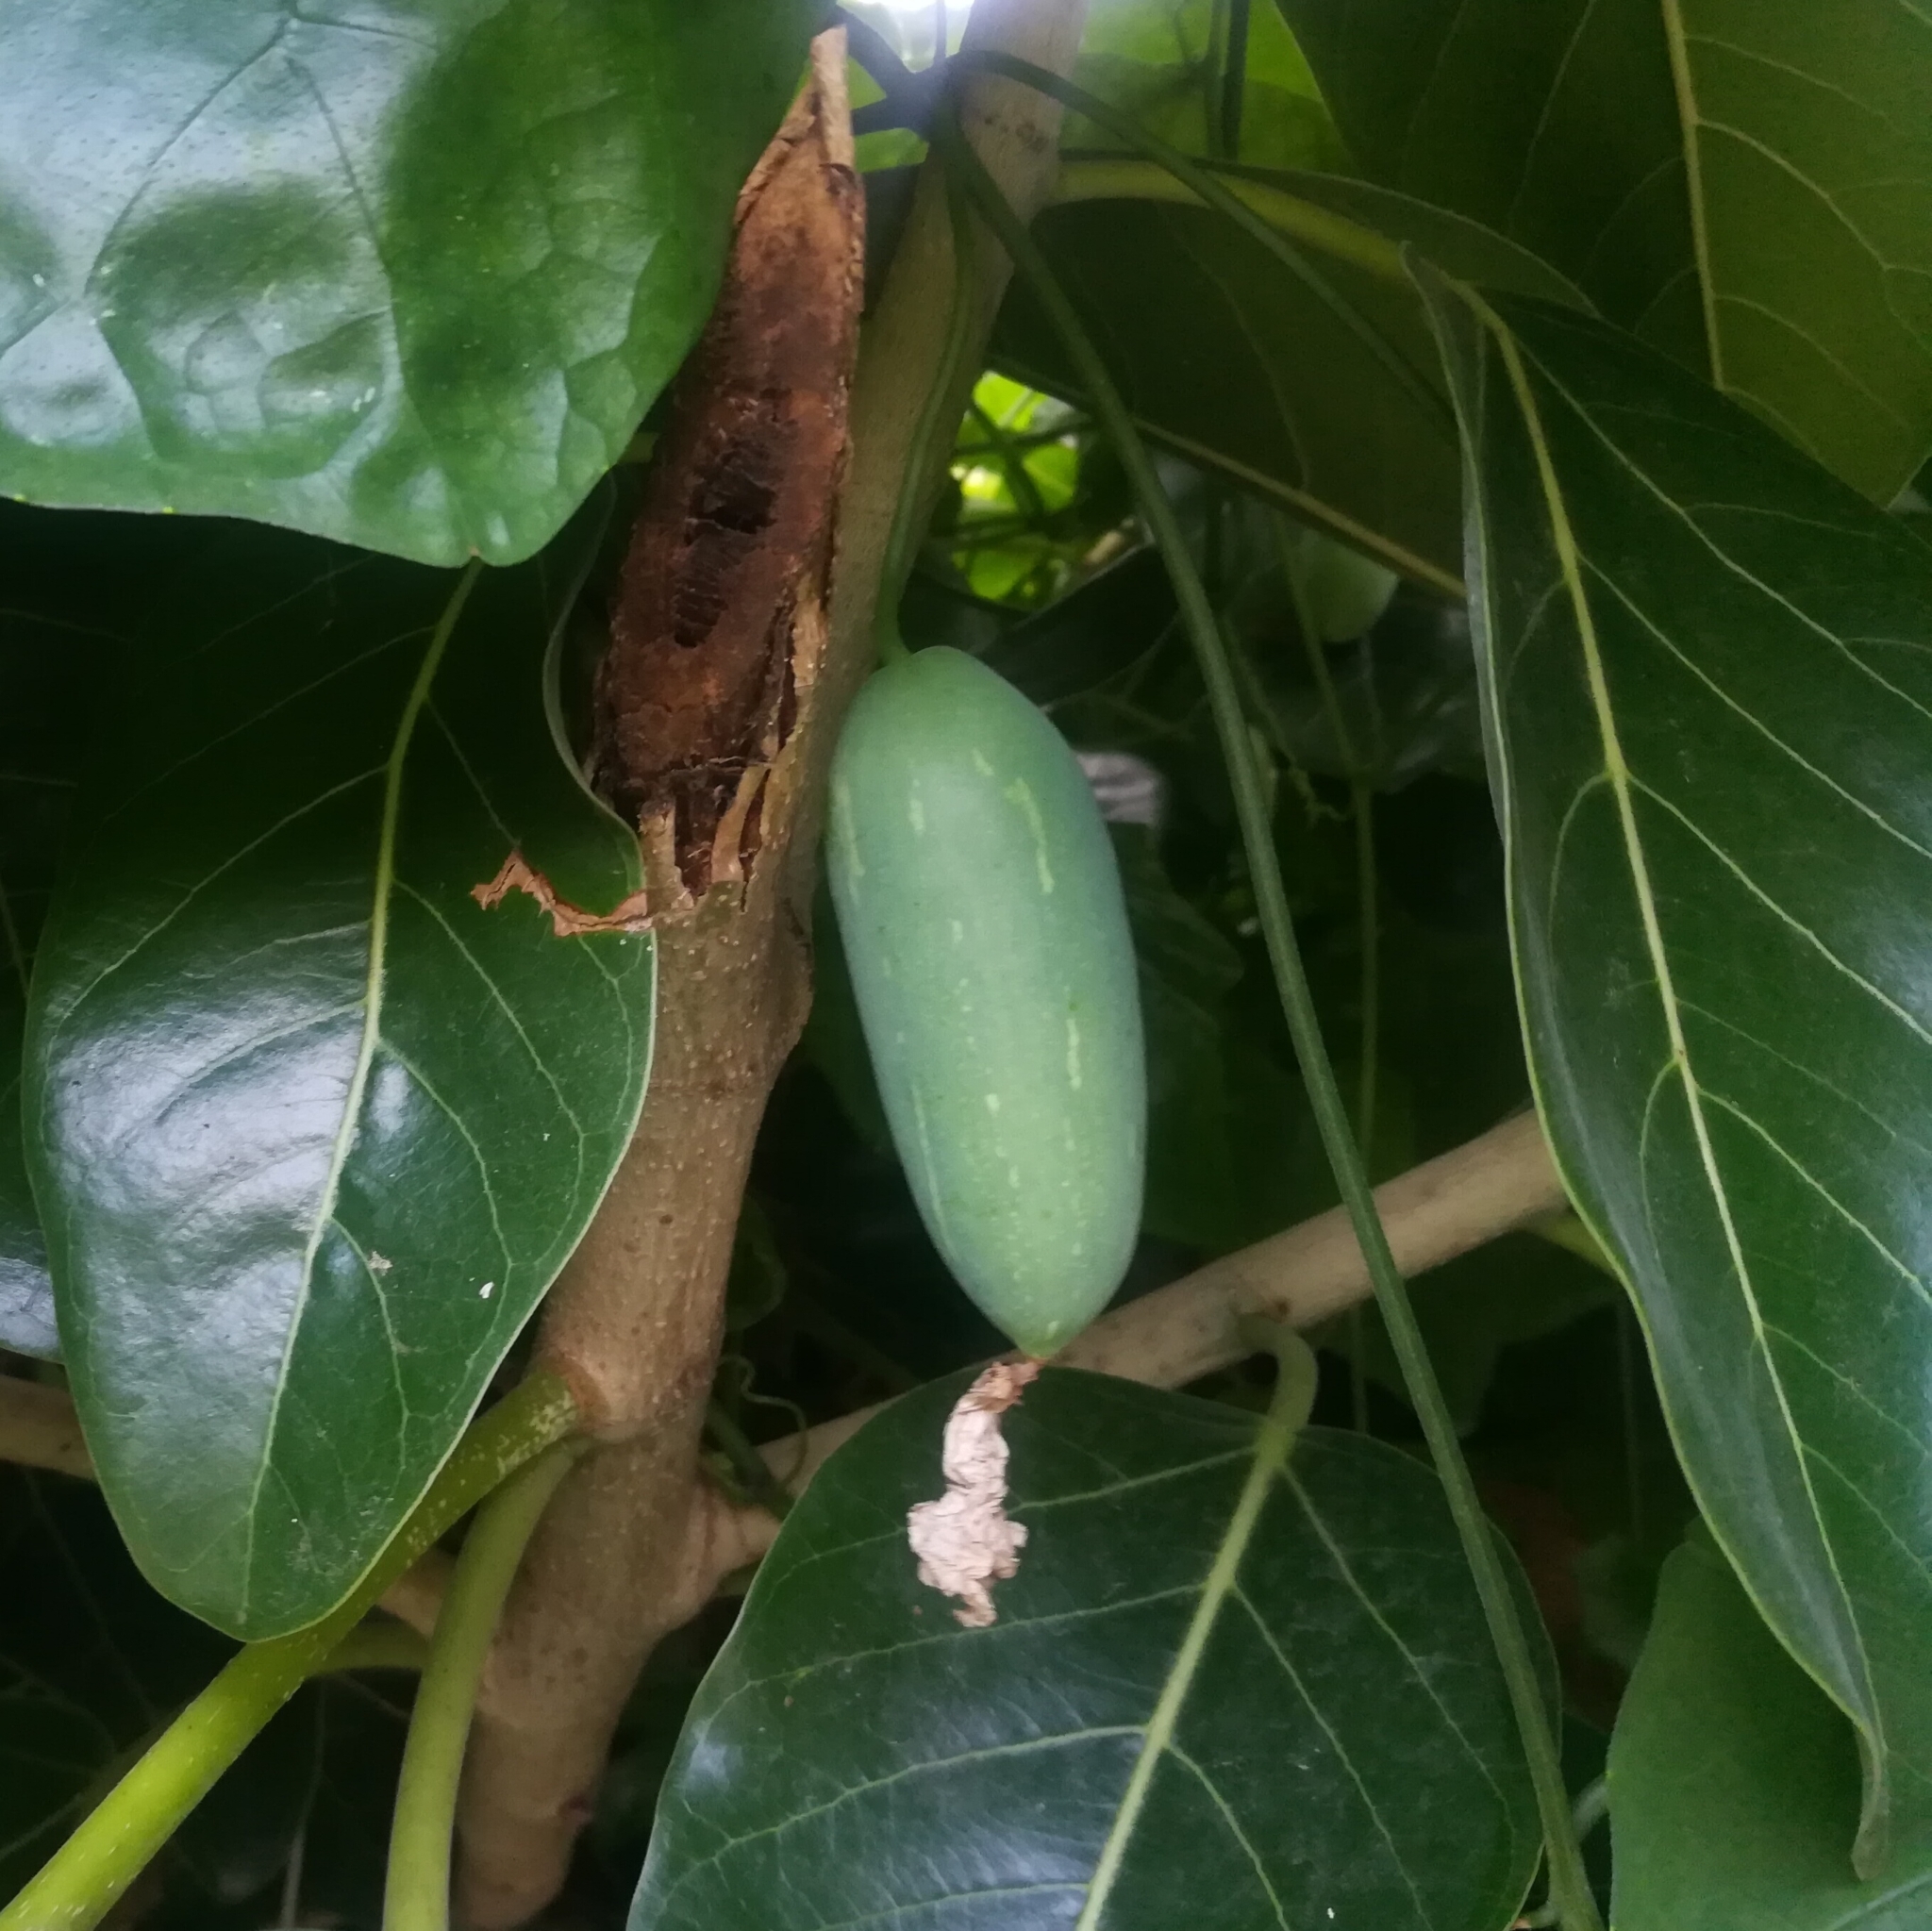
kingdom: Plantae
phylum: Tracheophyta
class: Magnoliopsida
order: Cucurbitales
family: Cucurbitaceae
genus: Coccinia
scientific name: Coccinia grandis
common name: Ivy gourd
